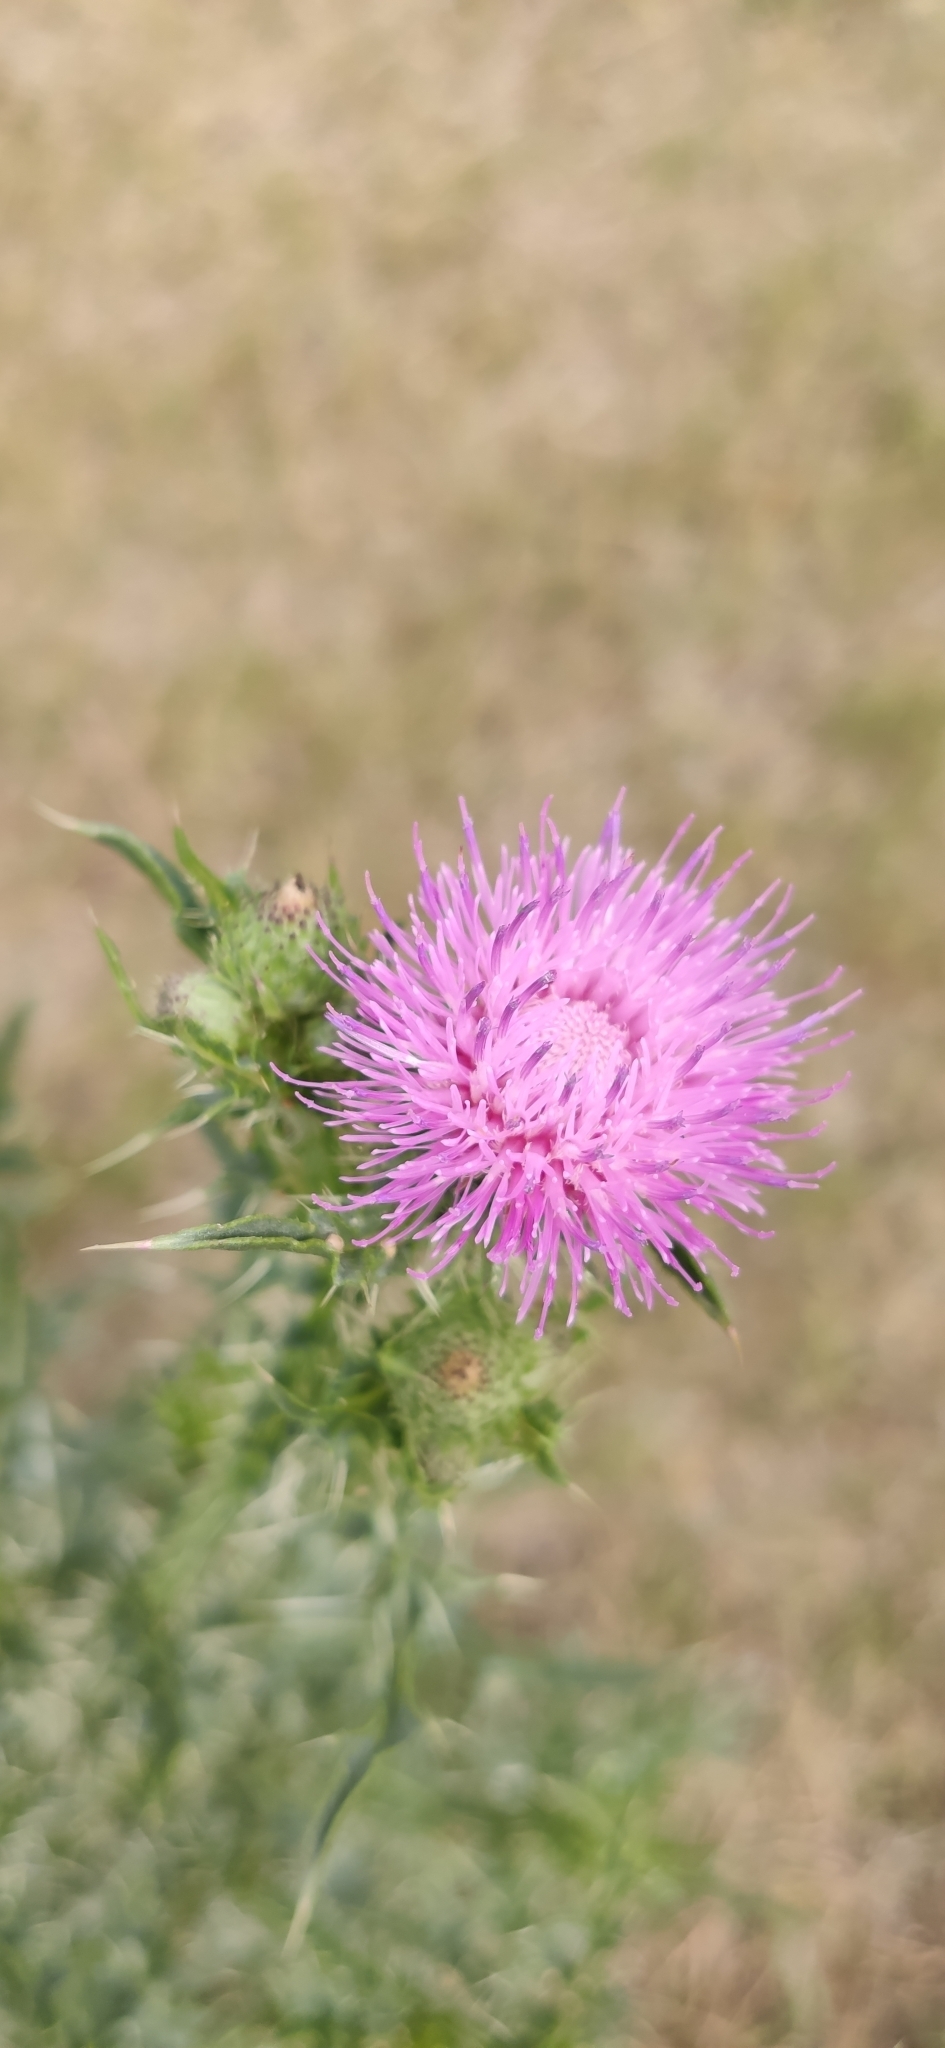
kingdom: Plantae
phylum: Tracheophyta
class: Magnoliopsida
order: Asterales
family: Asteraceae
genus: Carduus
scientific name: Carduus acanthoides
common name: Plumeless thistle
